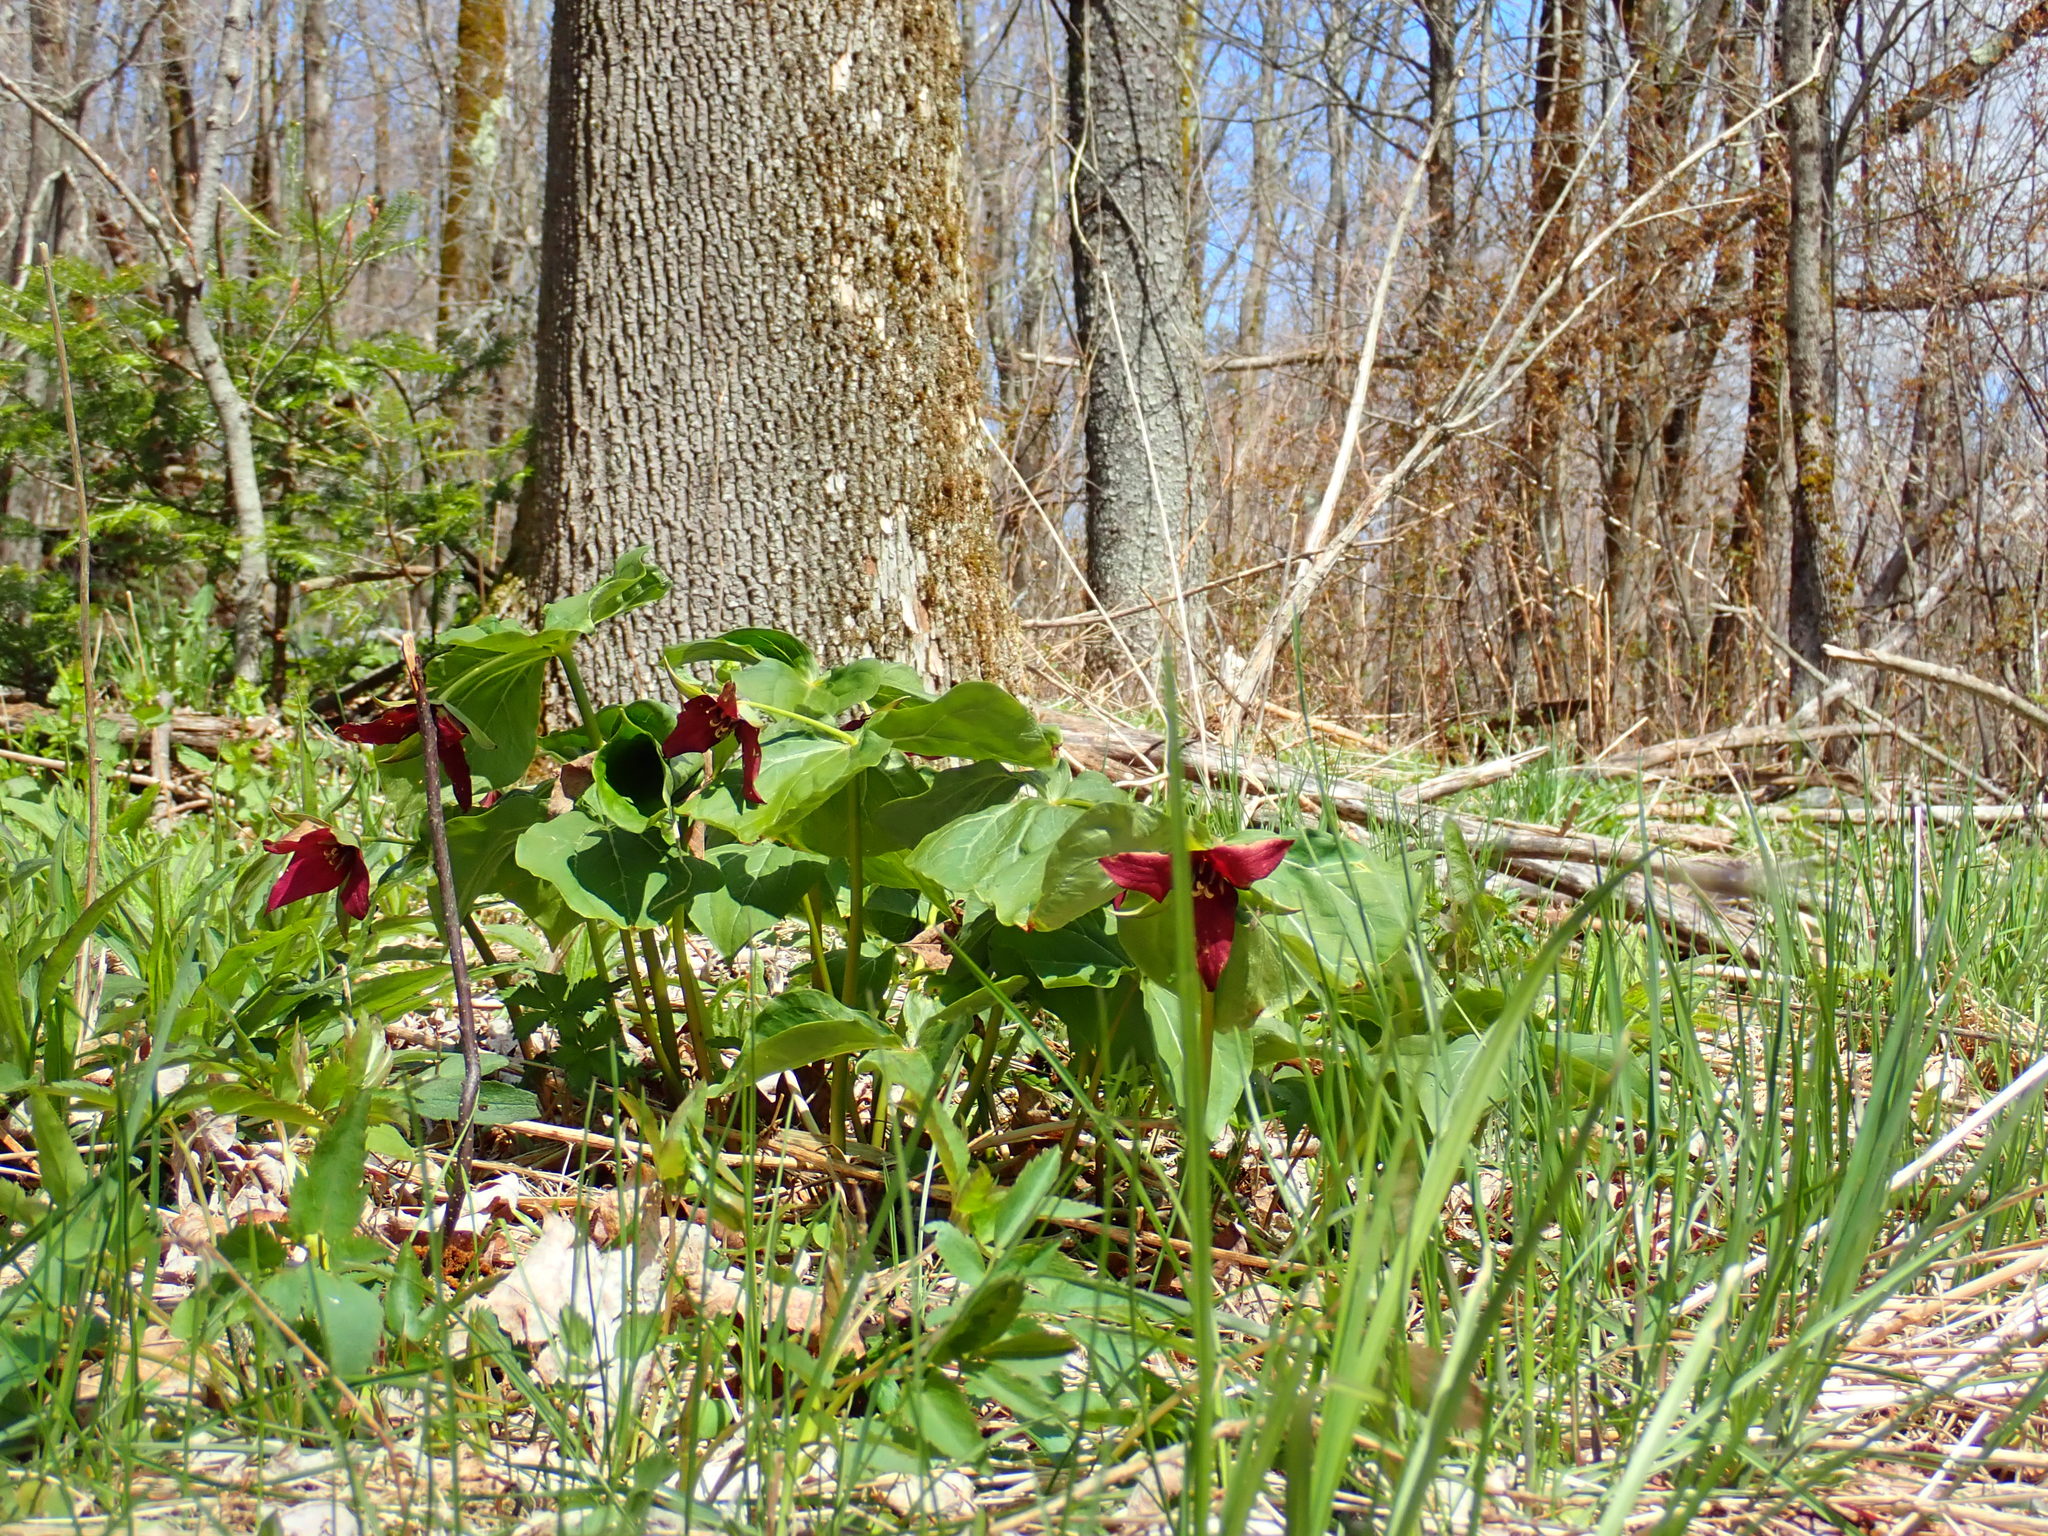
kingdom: Plantae
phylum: Tracheophyta
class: Liliopsida
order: Liliales
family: Melanthiaceae
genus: Trillium
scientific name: Trillium erectum
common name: Purple trillium
